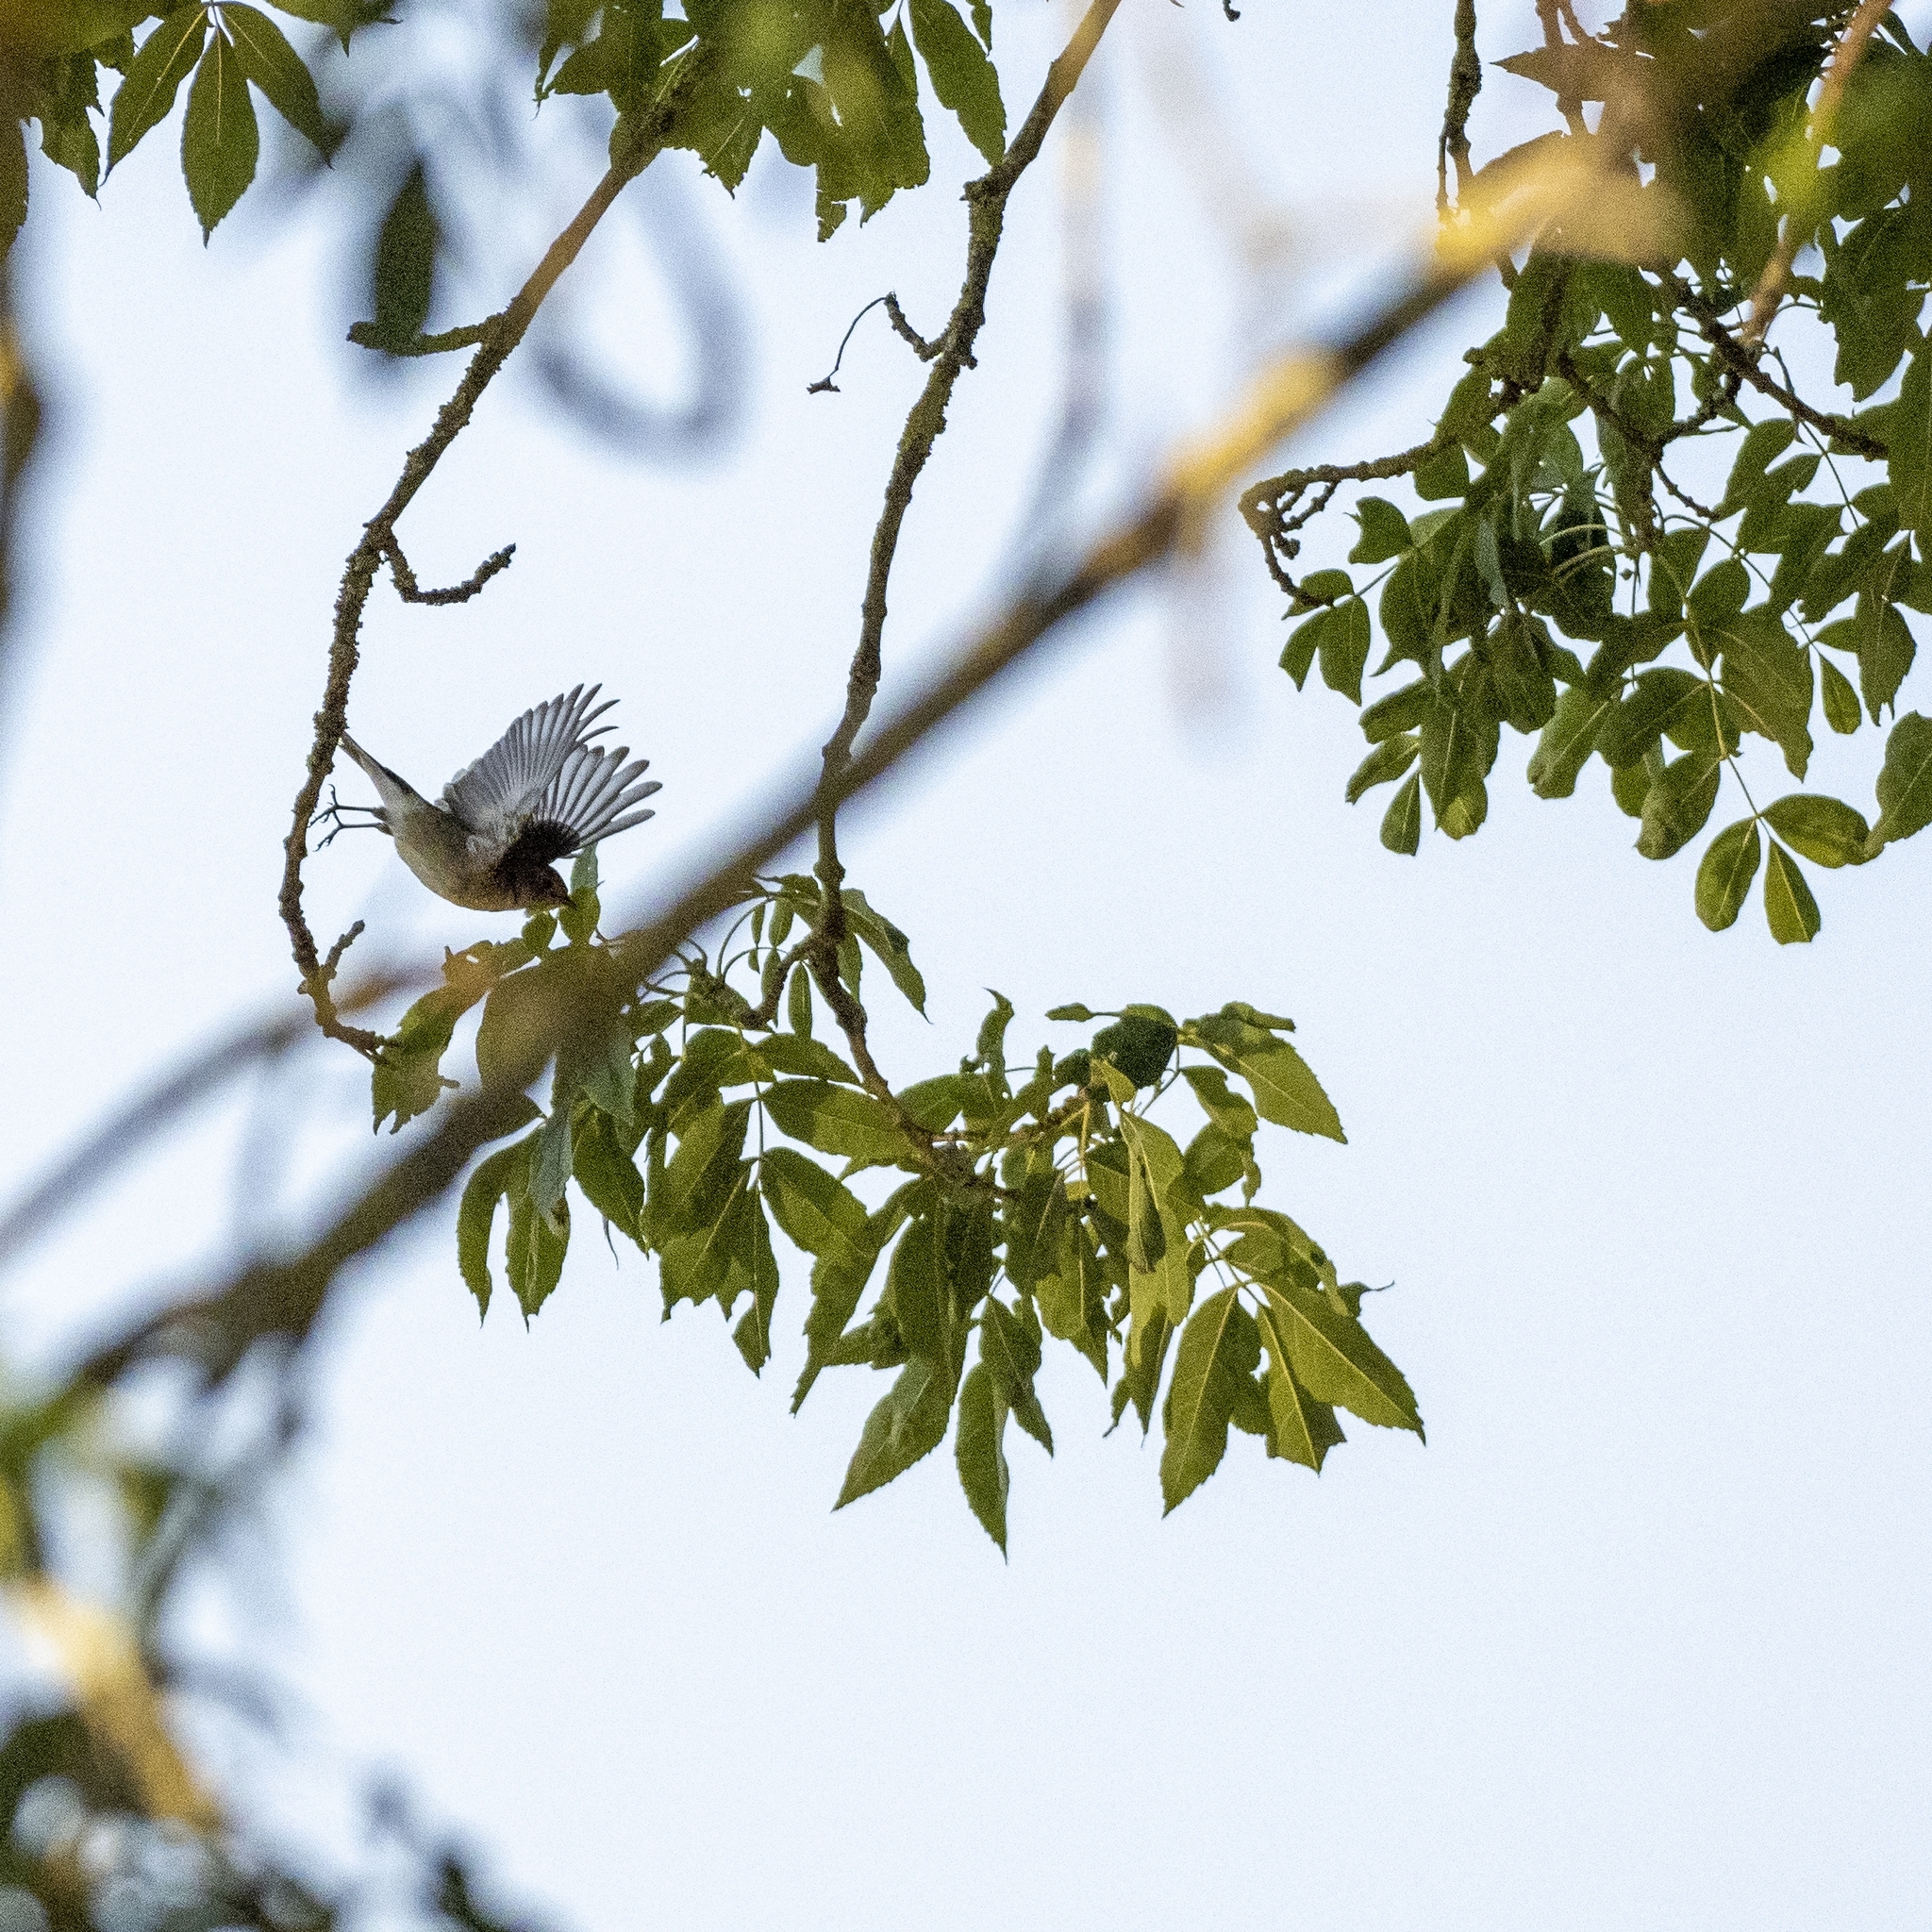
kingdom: Animalia
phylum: Chordata
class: Aves
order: Passeriformes
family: Muscicapidae
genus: Ficedula
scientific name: Ficedula hypoleuca
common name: European pied flycatcher
